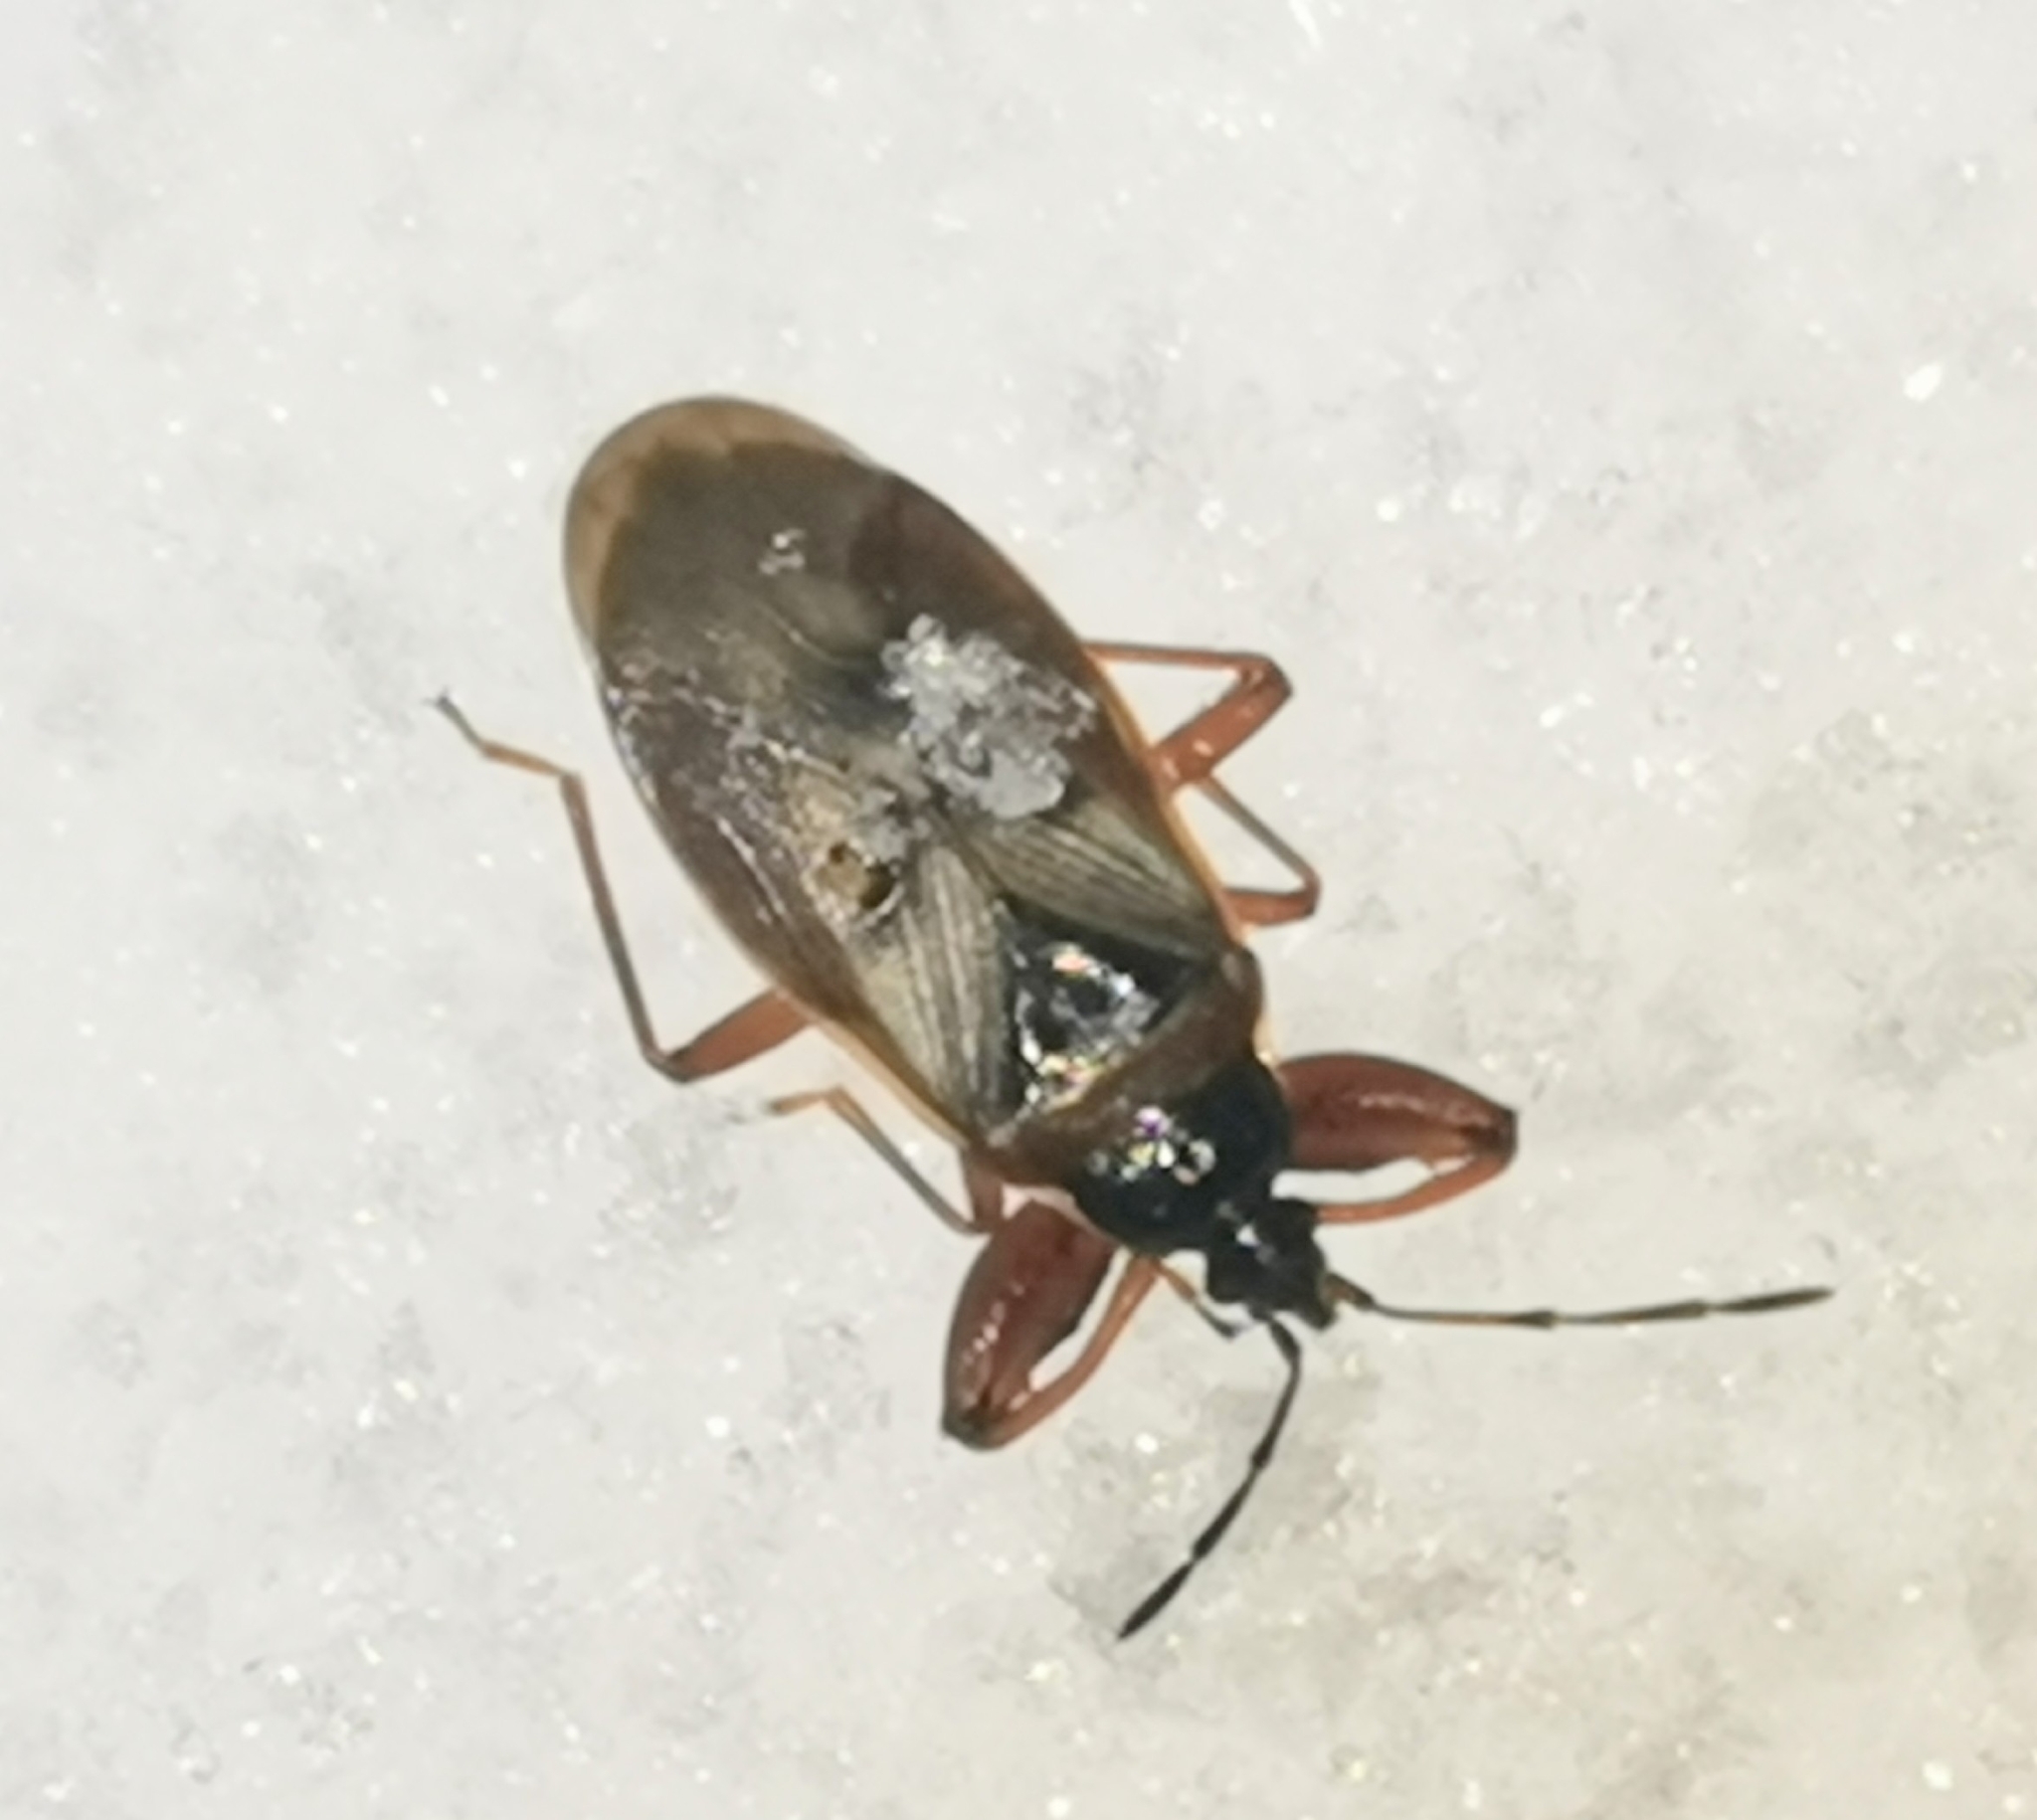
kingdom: Animalia
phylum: Arthropoda
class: Insecta
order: Hemiptera
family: Rhyparochromidae
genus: Gastrodes
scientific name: Gastrodes abietum
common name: Spruce cone bug
